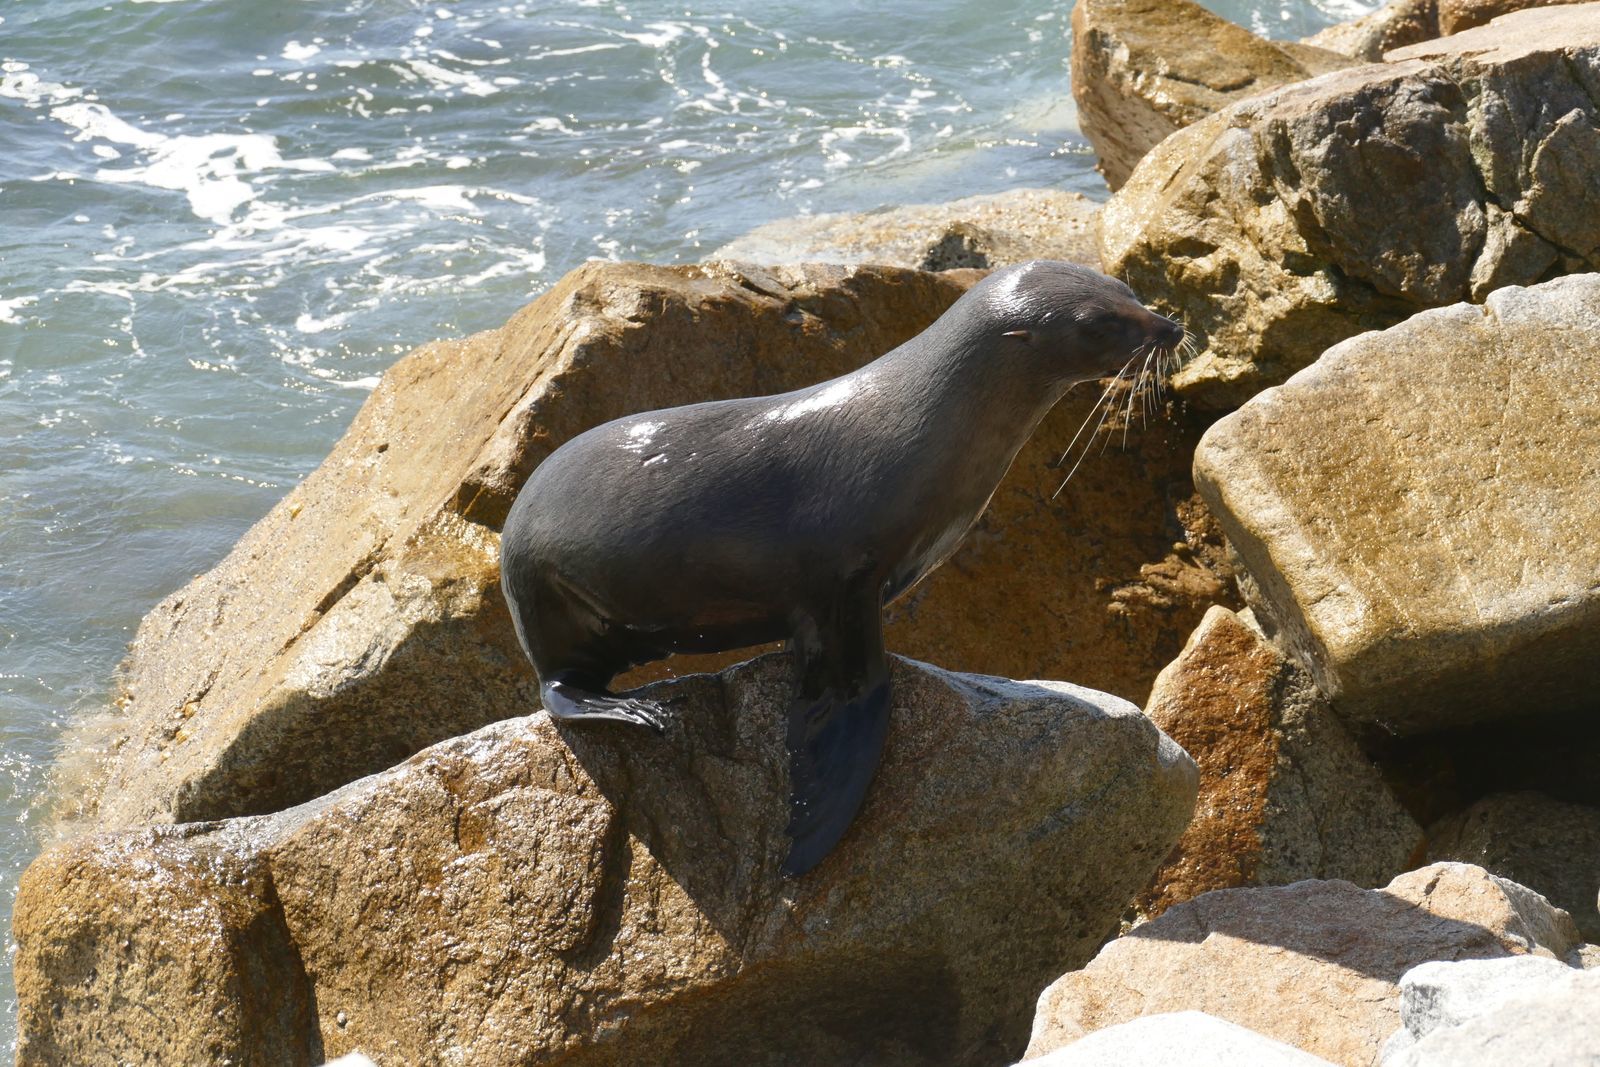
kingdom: Animalia
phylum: Chordata
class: Mammalia
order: Carnivora
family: Otariidae
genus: Arctocephalus
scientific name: Arctocephalus pusillus
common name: Brown fur seal
